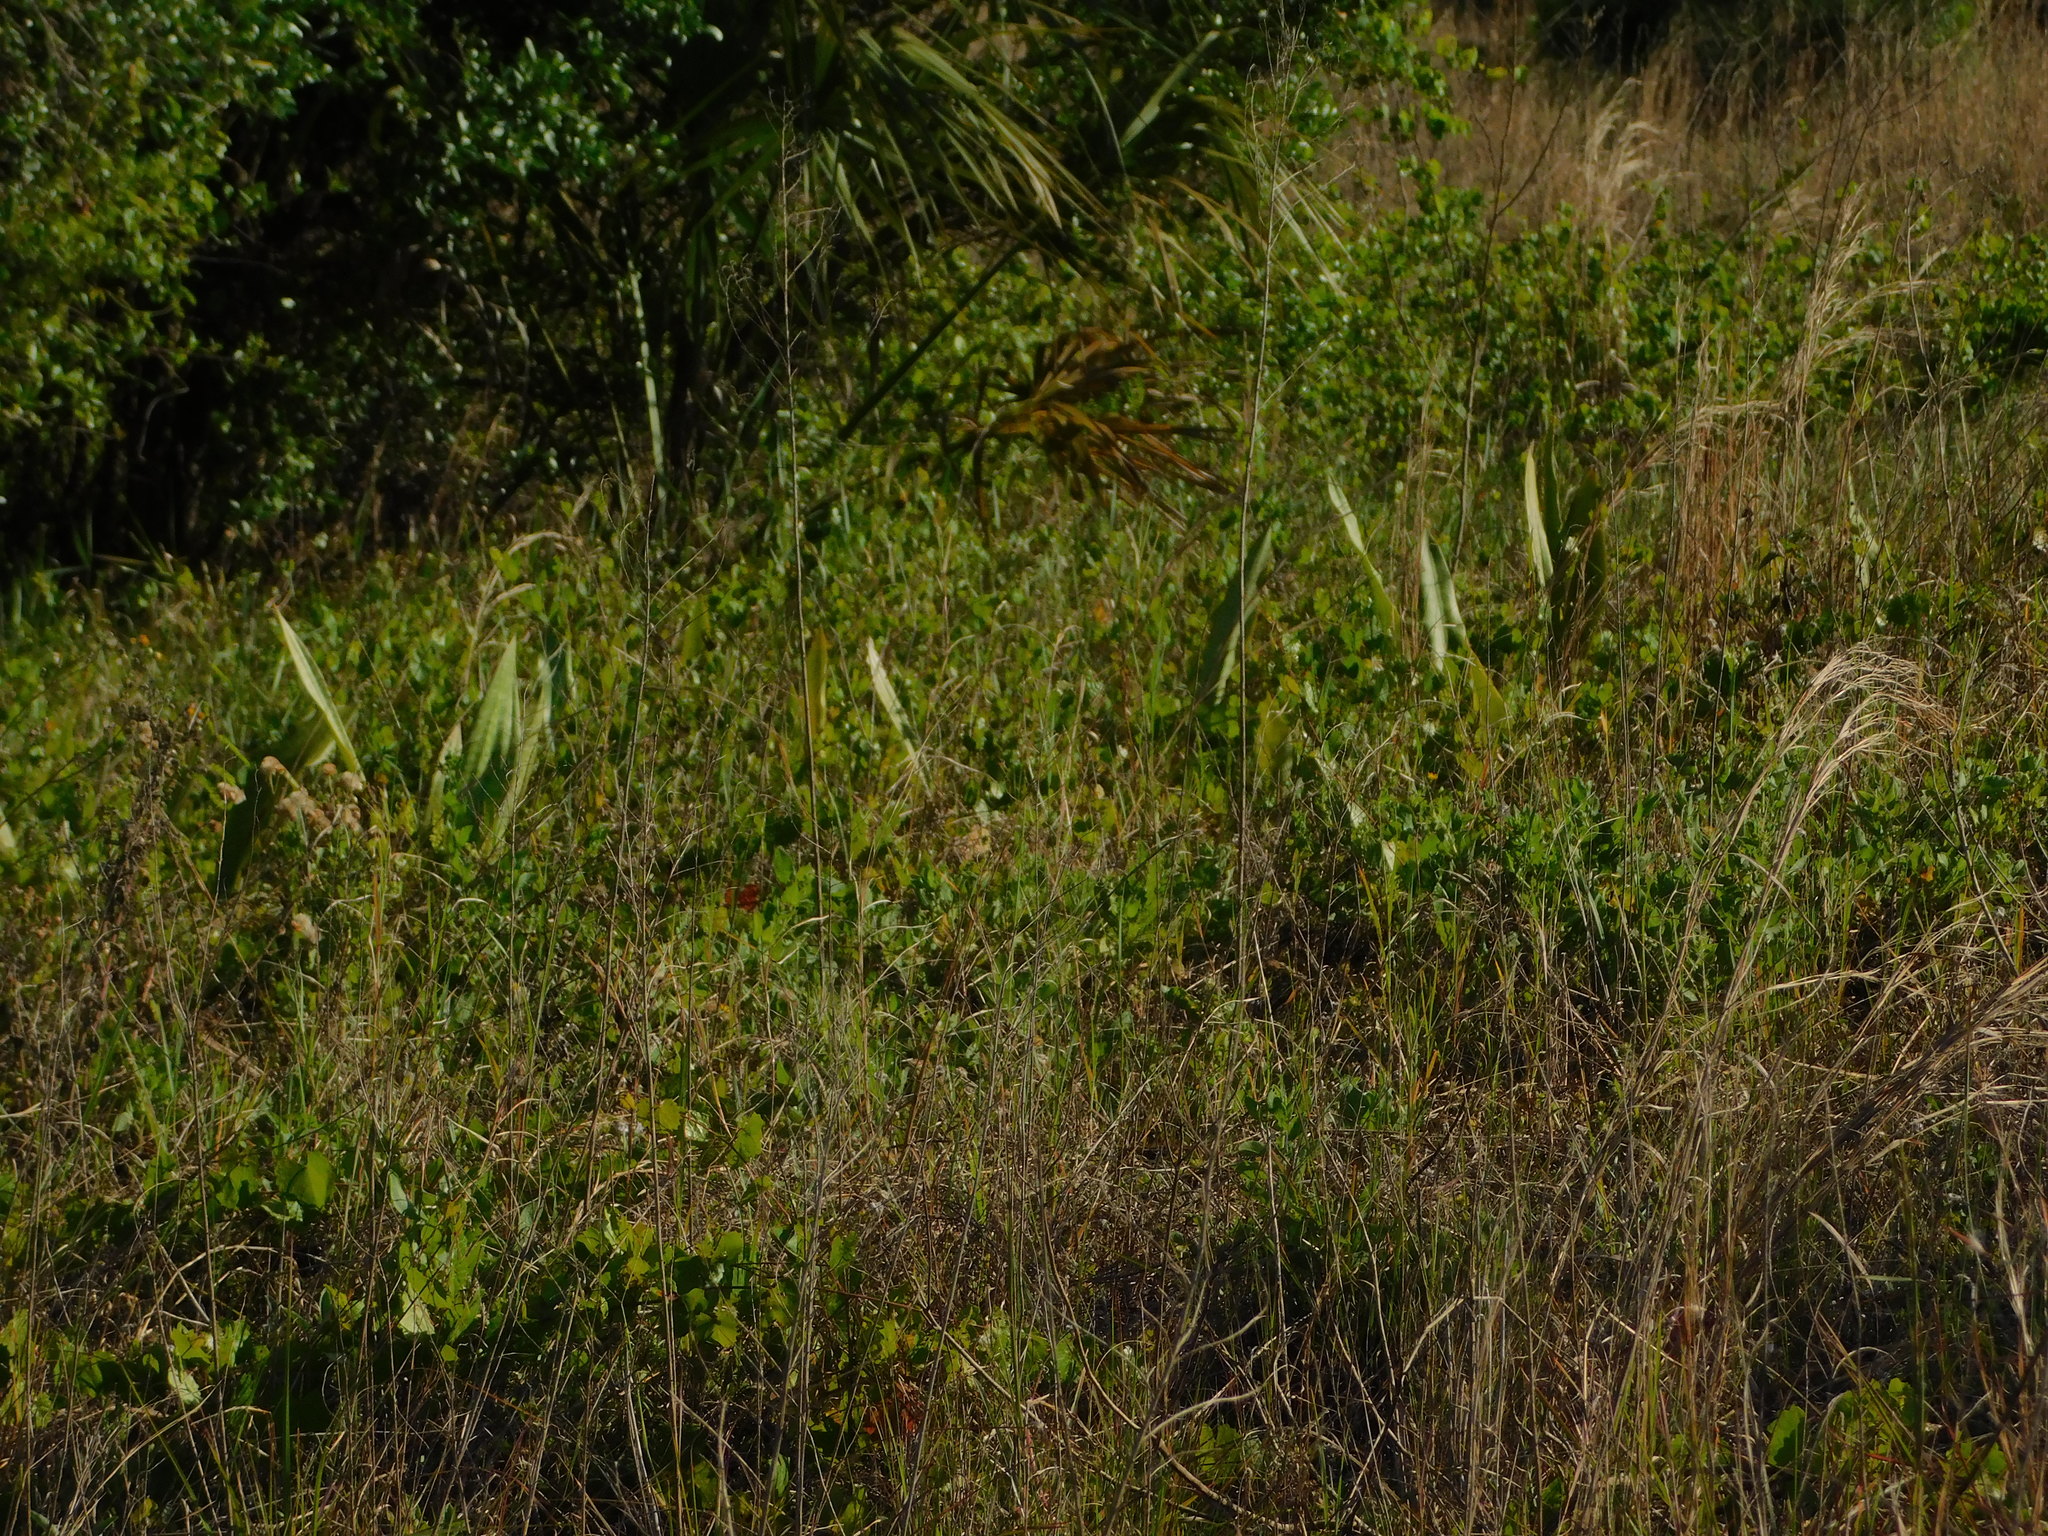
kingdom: Plantae
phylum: Tracheophyta
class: Liliopsida
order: Asparagales
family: Asparagaceae
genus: Dracaena
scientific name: Dracaena hyacinthoides
